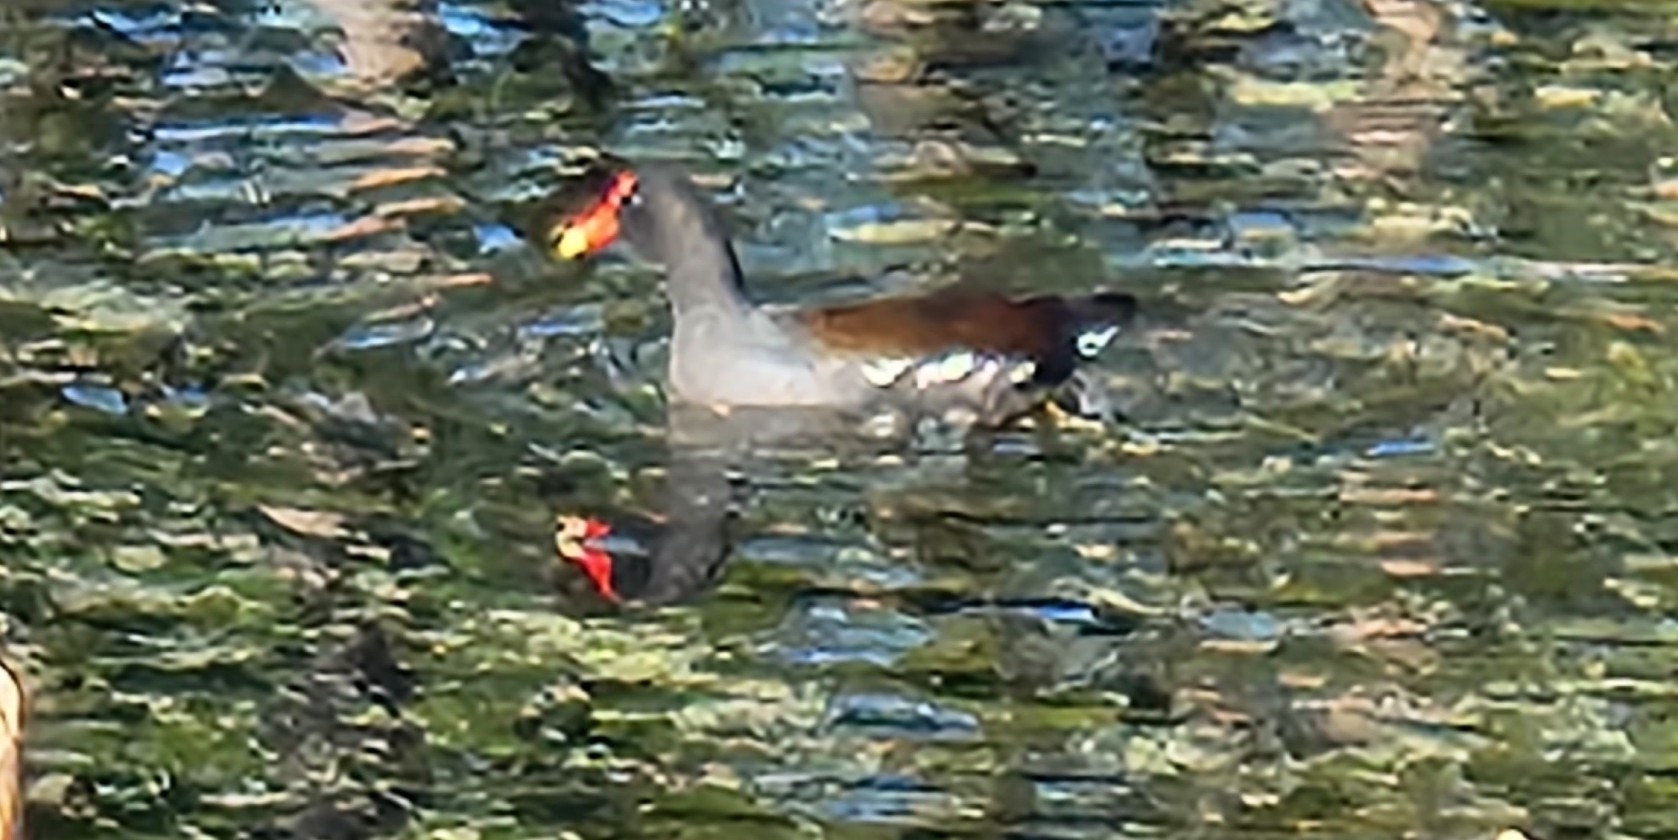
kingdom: Animalia
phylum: Chordata
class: Aves
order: Gruiformes
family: Rallidae
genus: Gallinula
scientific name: Gallinula chloropus
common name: Common moorhen
